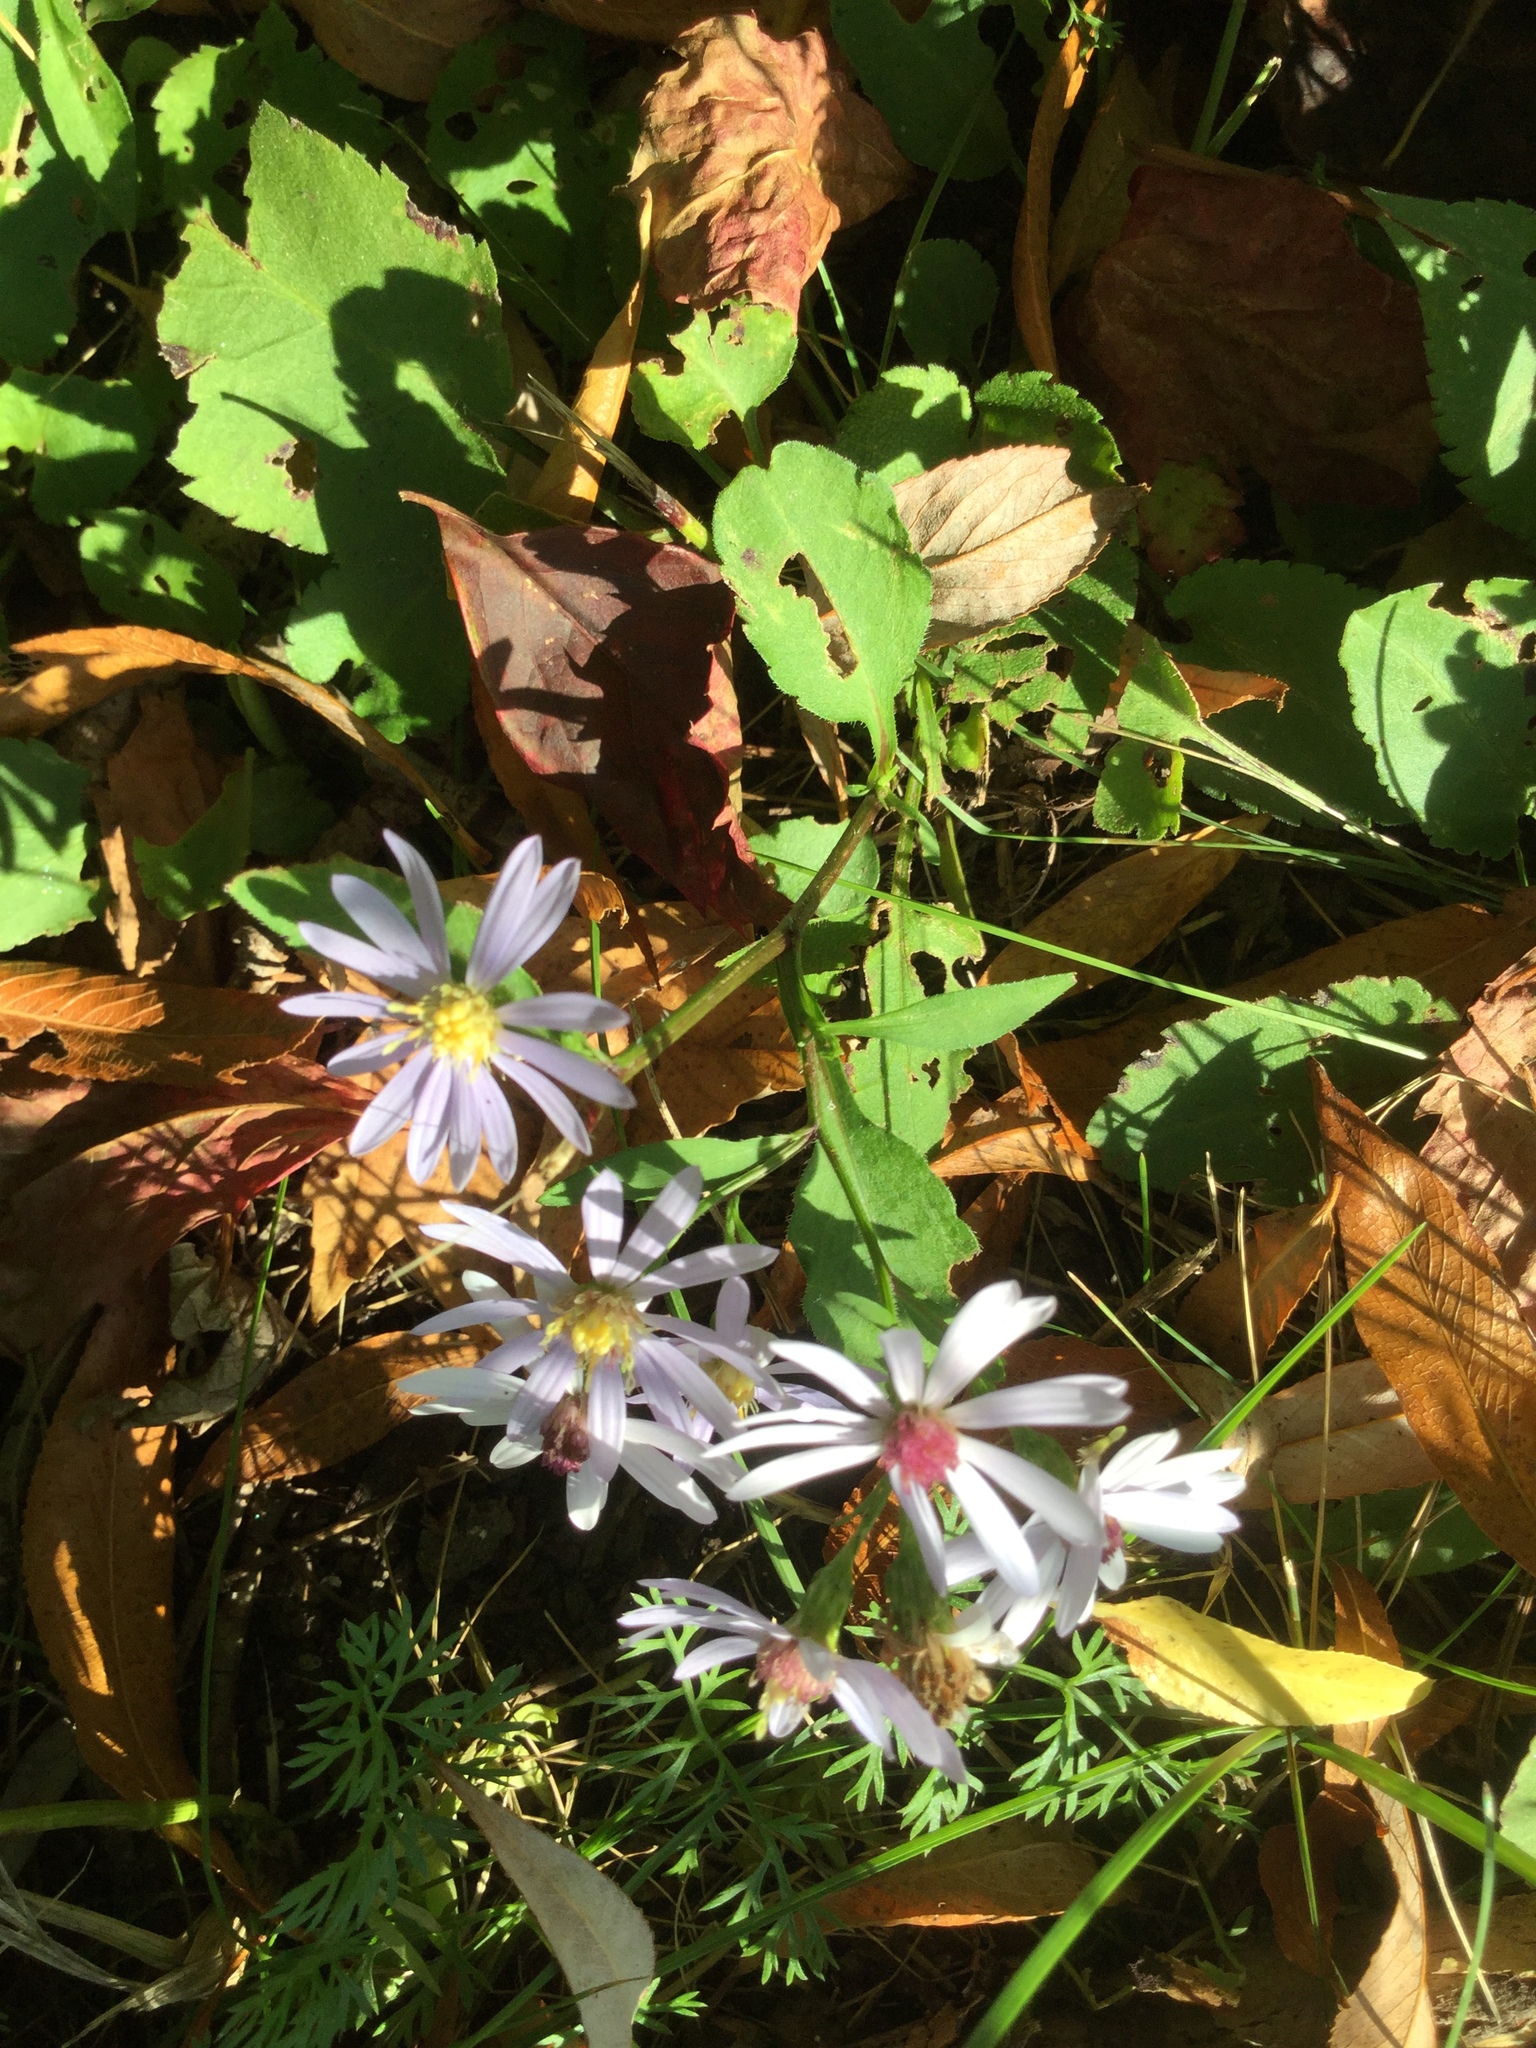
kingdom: Plantae
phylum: Tracheophyta
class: Magnoliopsida
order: Asterales
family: Asteraceae
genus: Symphyotrichum
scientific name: Symphyotrichum ciliolatum
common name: Fringed blue aster
